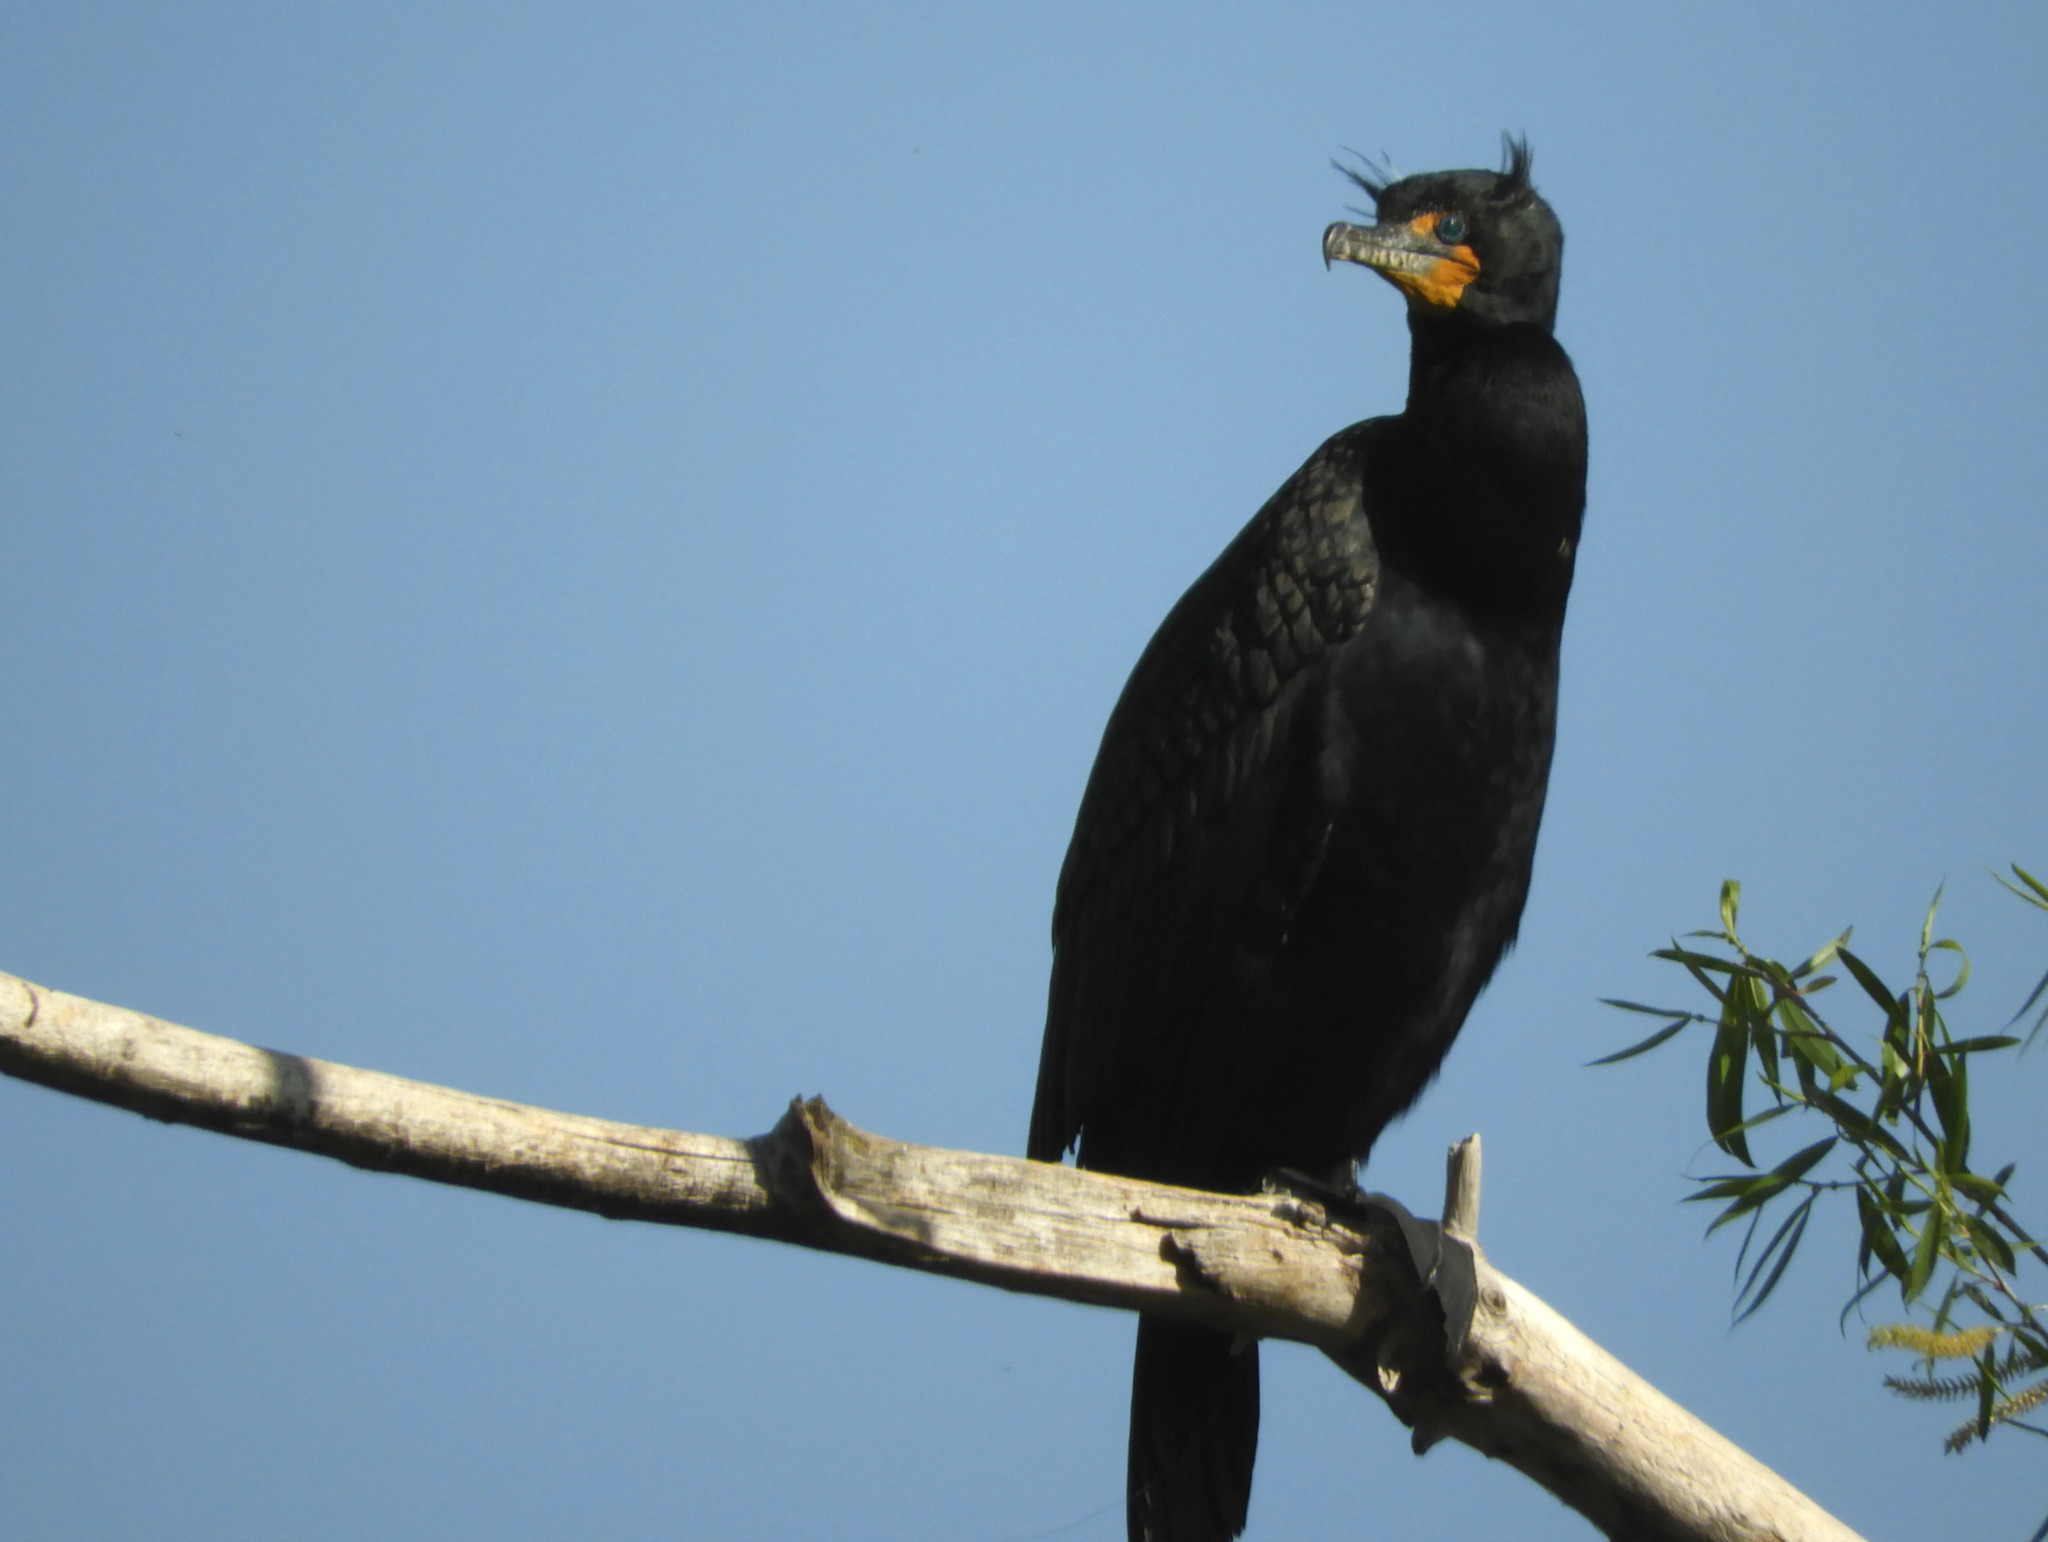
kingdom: Animalia
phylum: Chordata
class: Aves
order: Suliformes
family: Phalacrocoracidae
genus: Phalacrocorax
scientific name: Phalacrocorax auritus
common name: Double-crested cormorant
